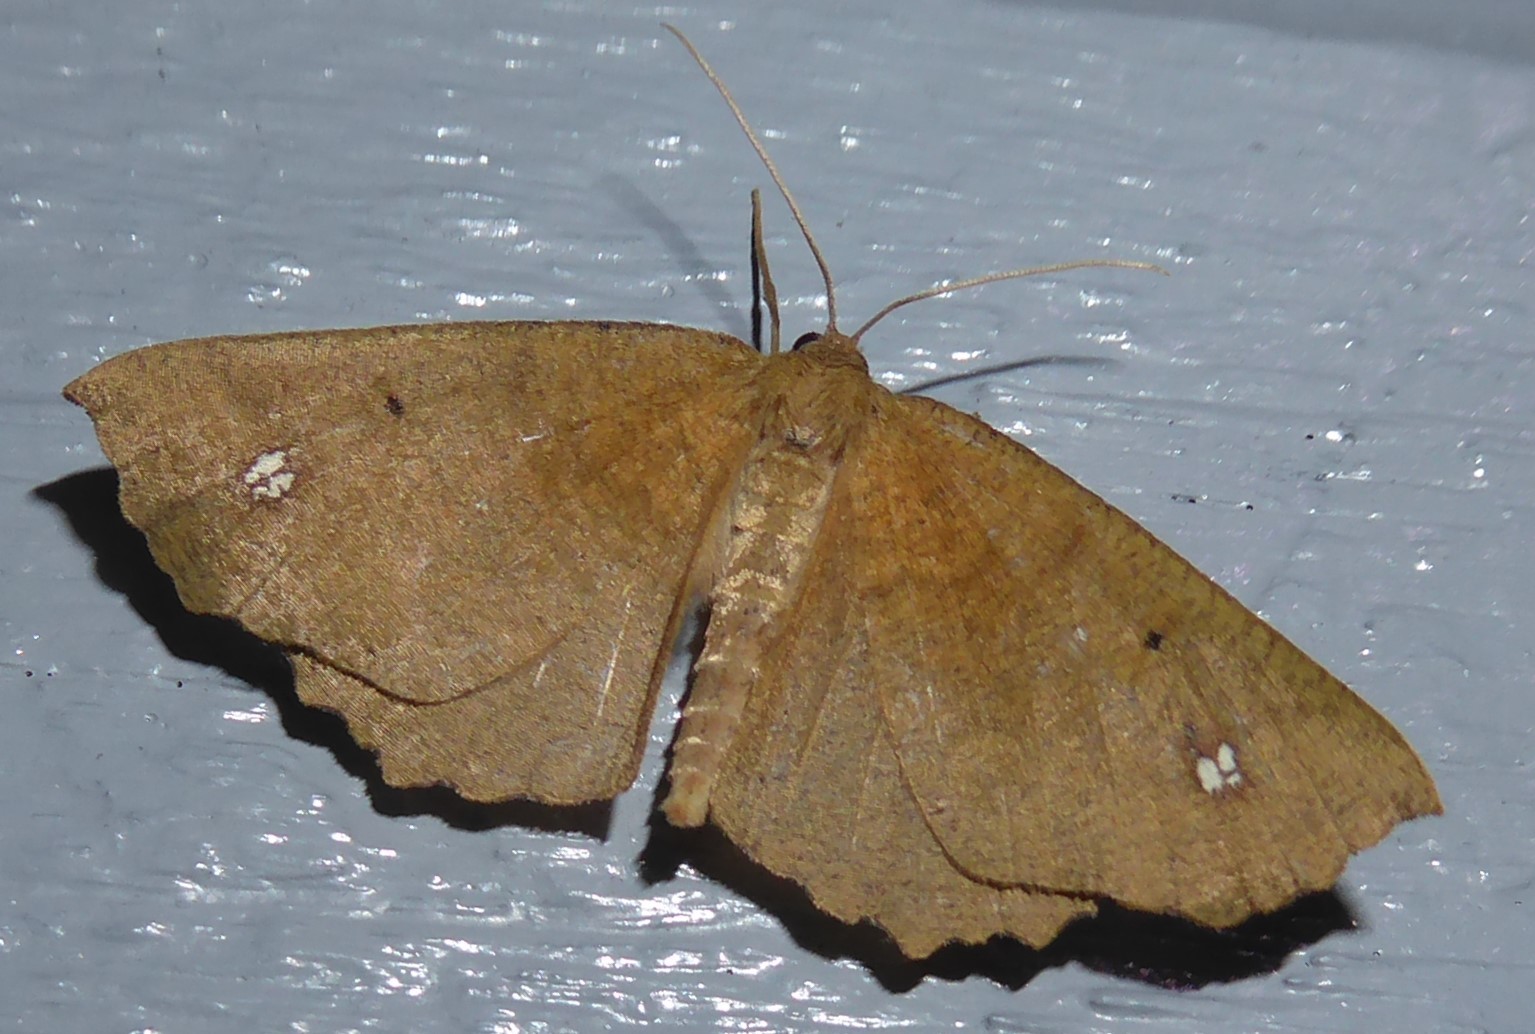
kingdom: Animalia
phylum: Arthropoda
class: Insecta
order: Lepidoptera
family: Geometridae
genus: Xyridacma
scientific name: Xyridacma ustaria
